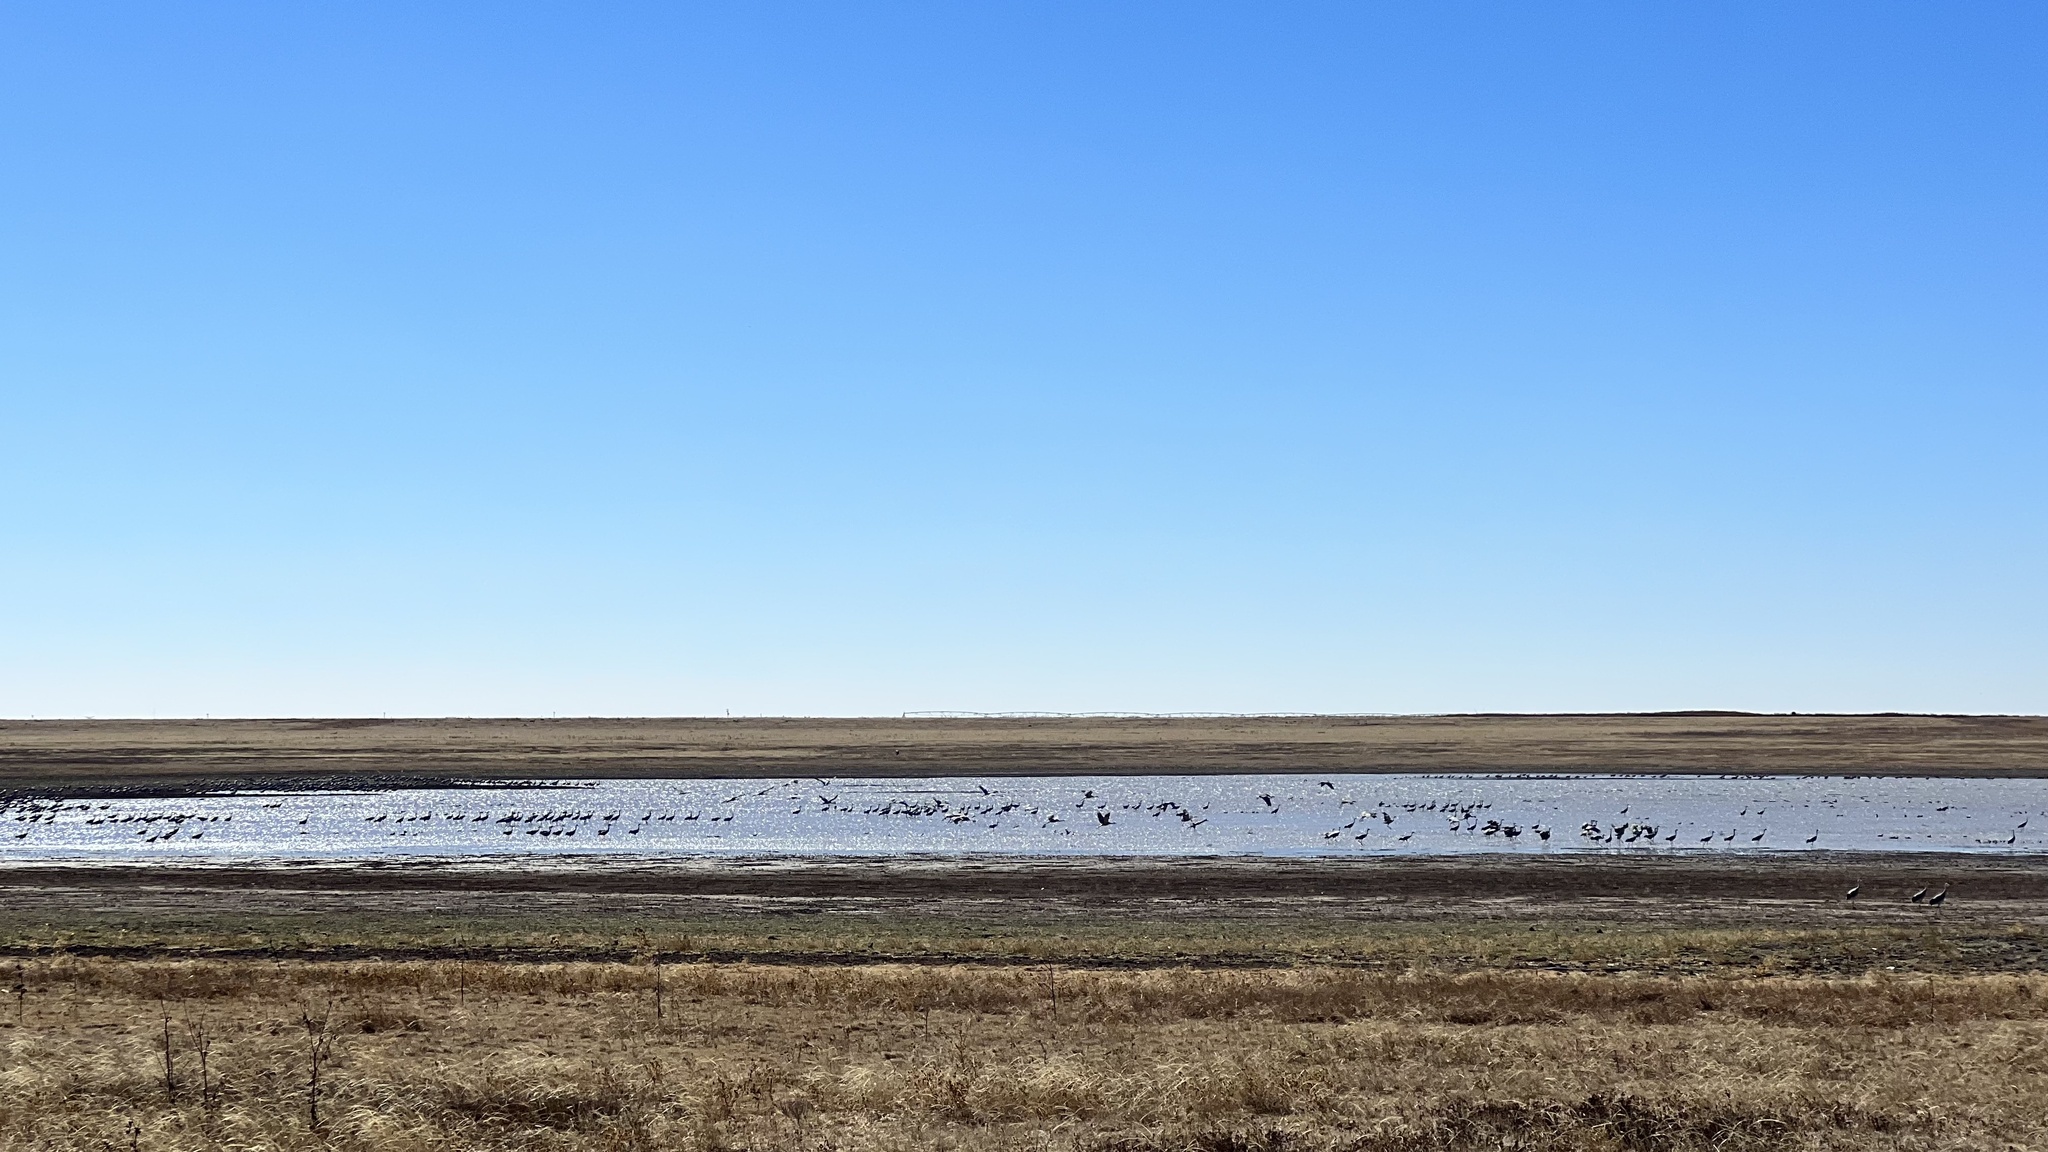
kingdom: Animalia
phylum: Chordata
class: Aves
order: Gruiformes
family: Gruidae
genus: Grus
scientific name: Grus canadensis
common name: Sandhill crane
